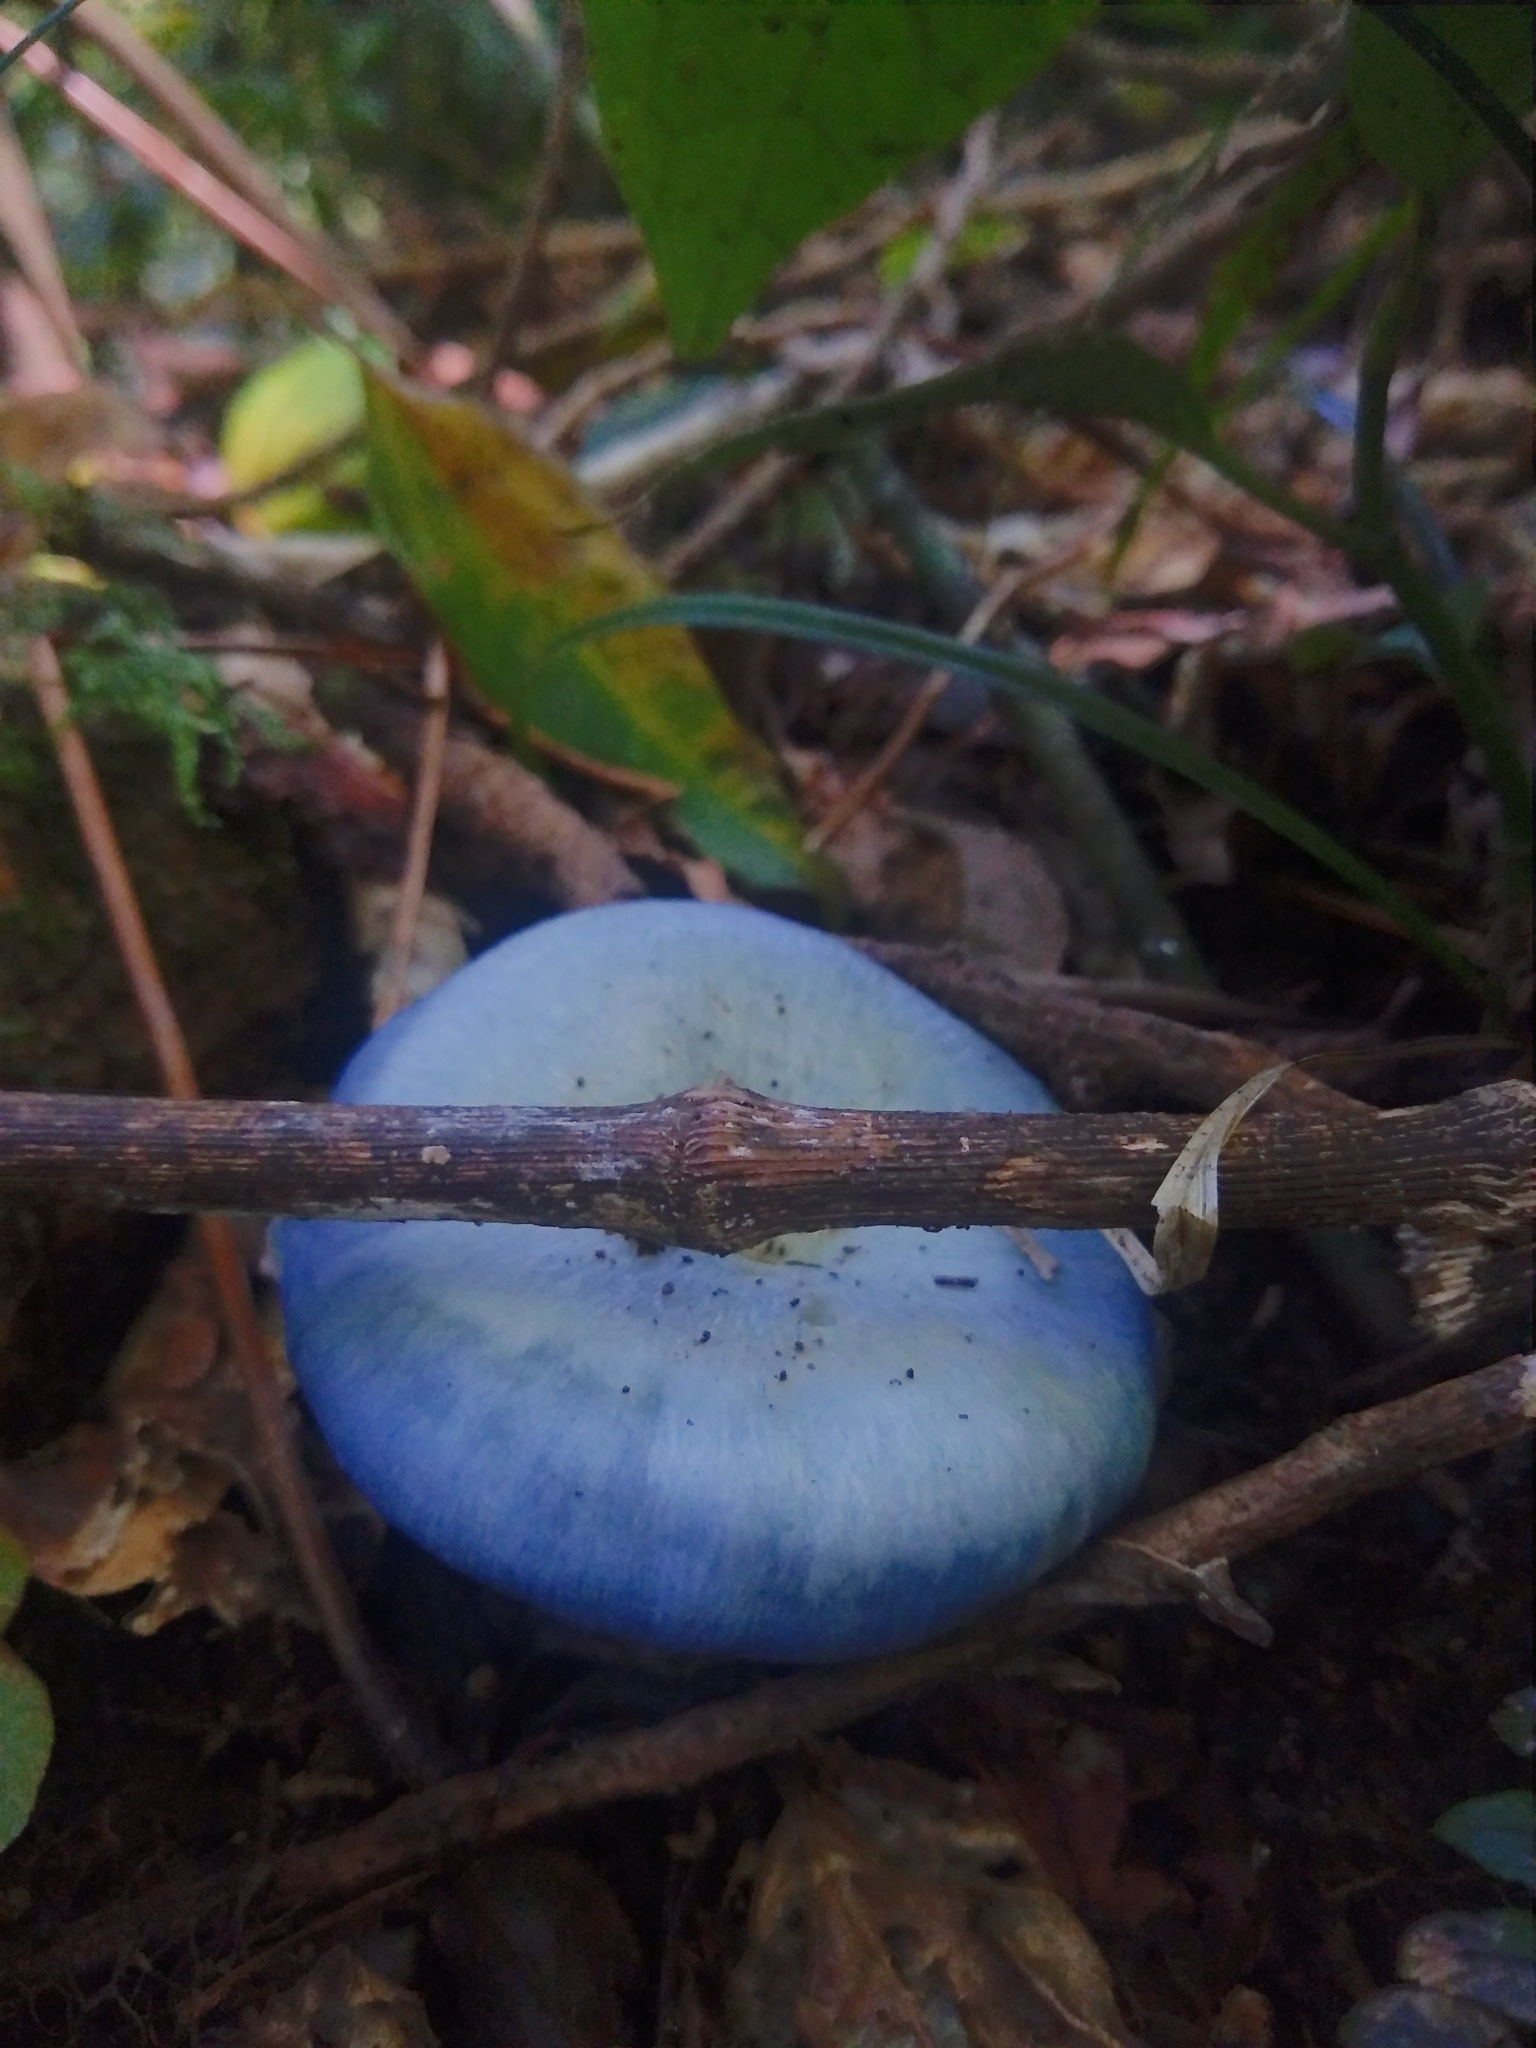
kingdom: Fungi
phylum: Basidiomycota
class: Agaricomycetes
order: Russulales
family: Russulaceae
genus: Lactarius
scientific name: Lactarius indigo
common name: Indigo milk cap
